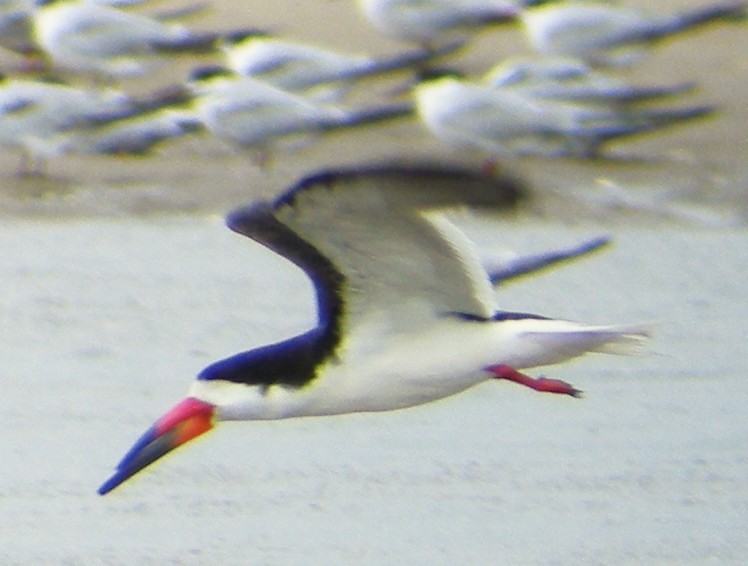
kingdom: Animalia
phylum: Chordata
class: Aves
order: Charadriiformes
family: Laridae
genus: Rynchops
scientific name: Rynchops niger
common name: Black skimmer
